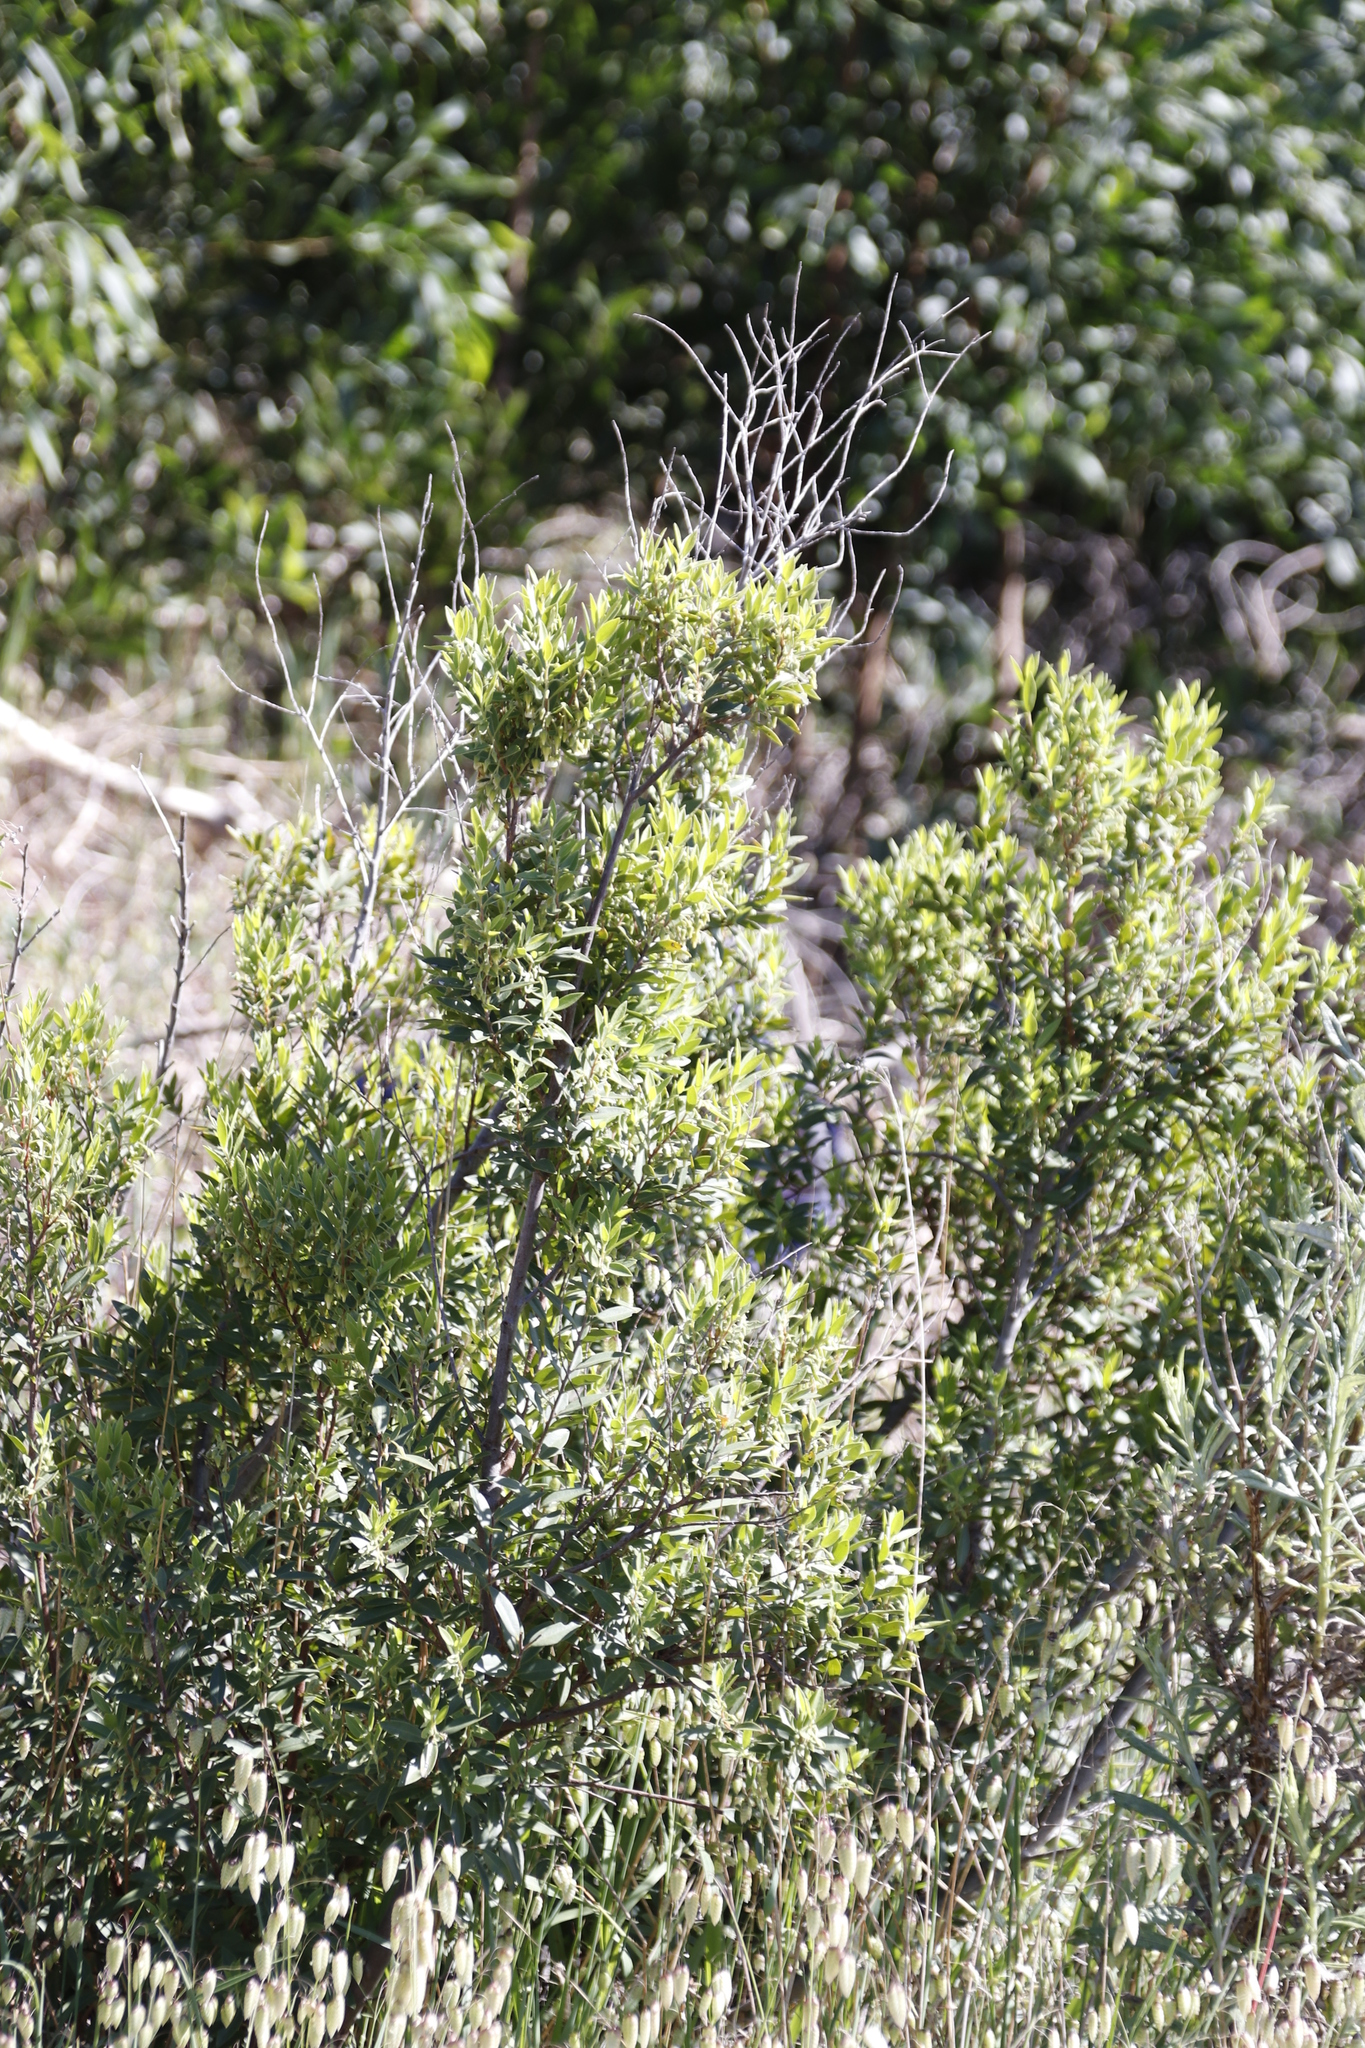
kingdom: Plantae
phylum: Tracheophyta
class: Magnoliopsida
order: Ericales
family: Ebenaceae
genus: Diospyros
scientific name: Diospyros glabra
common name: Fynbos star apple
